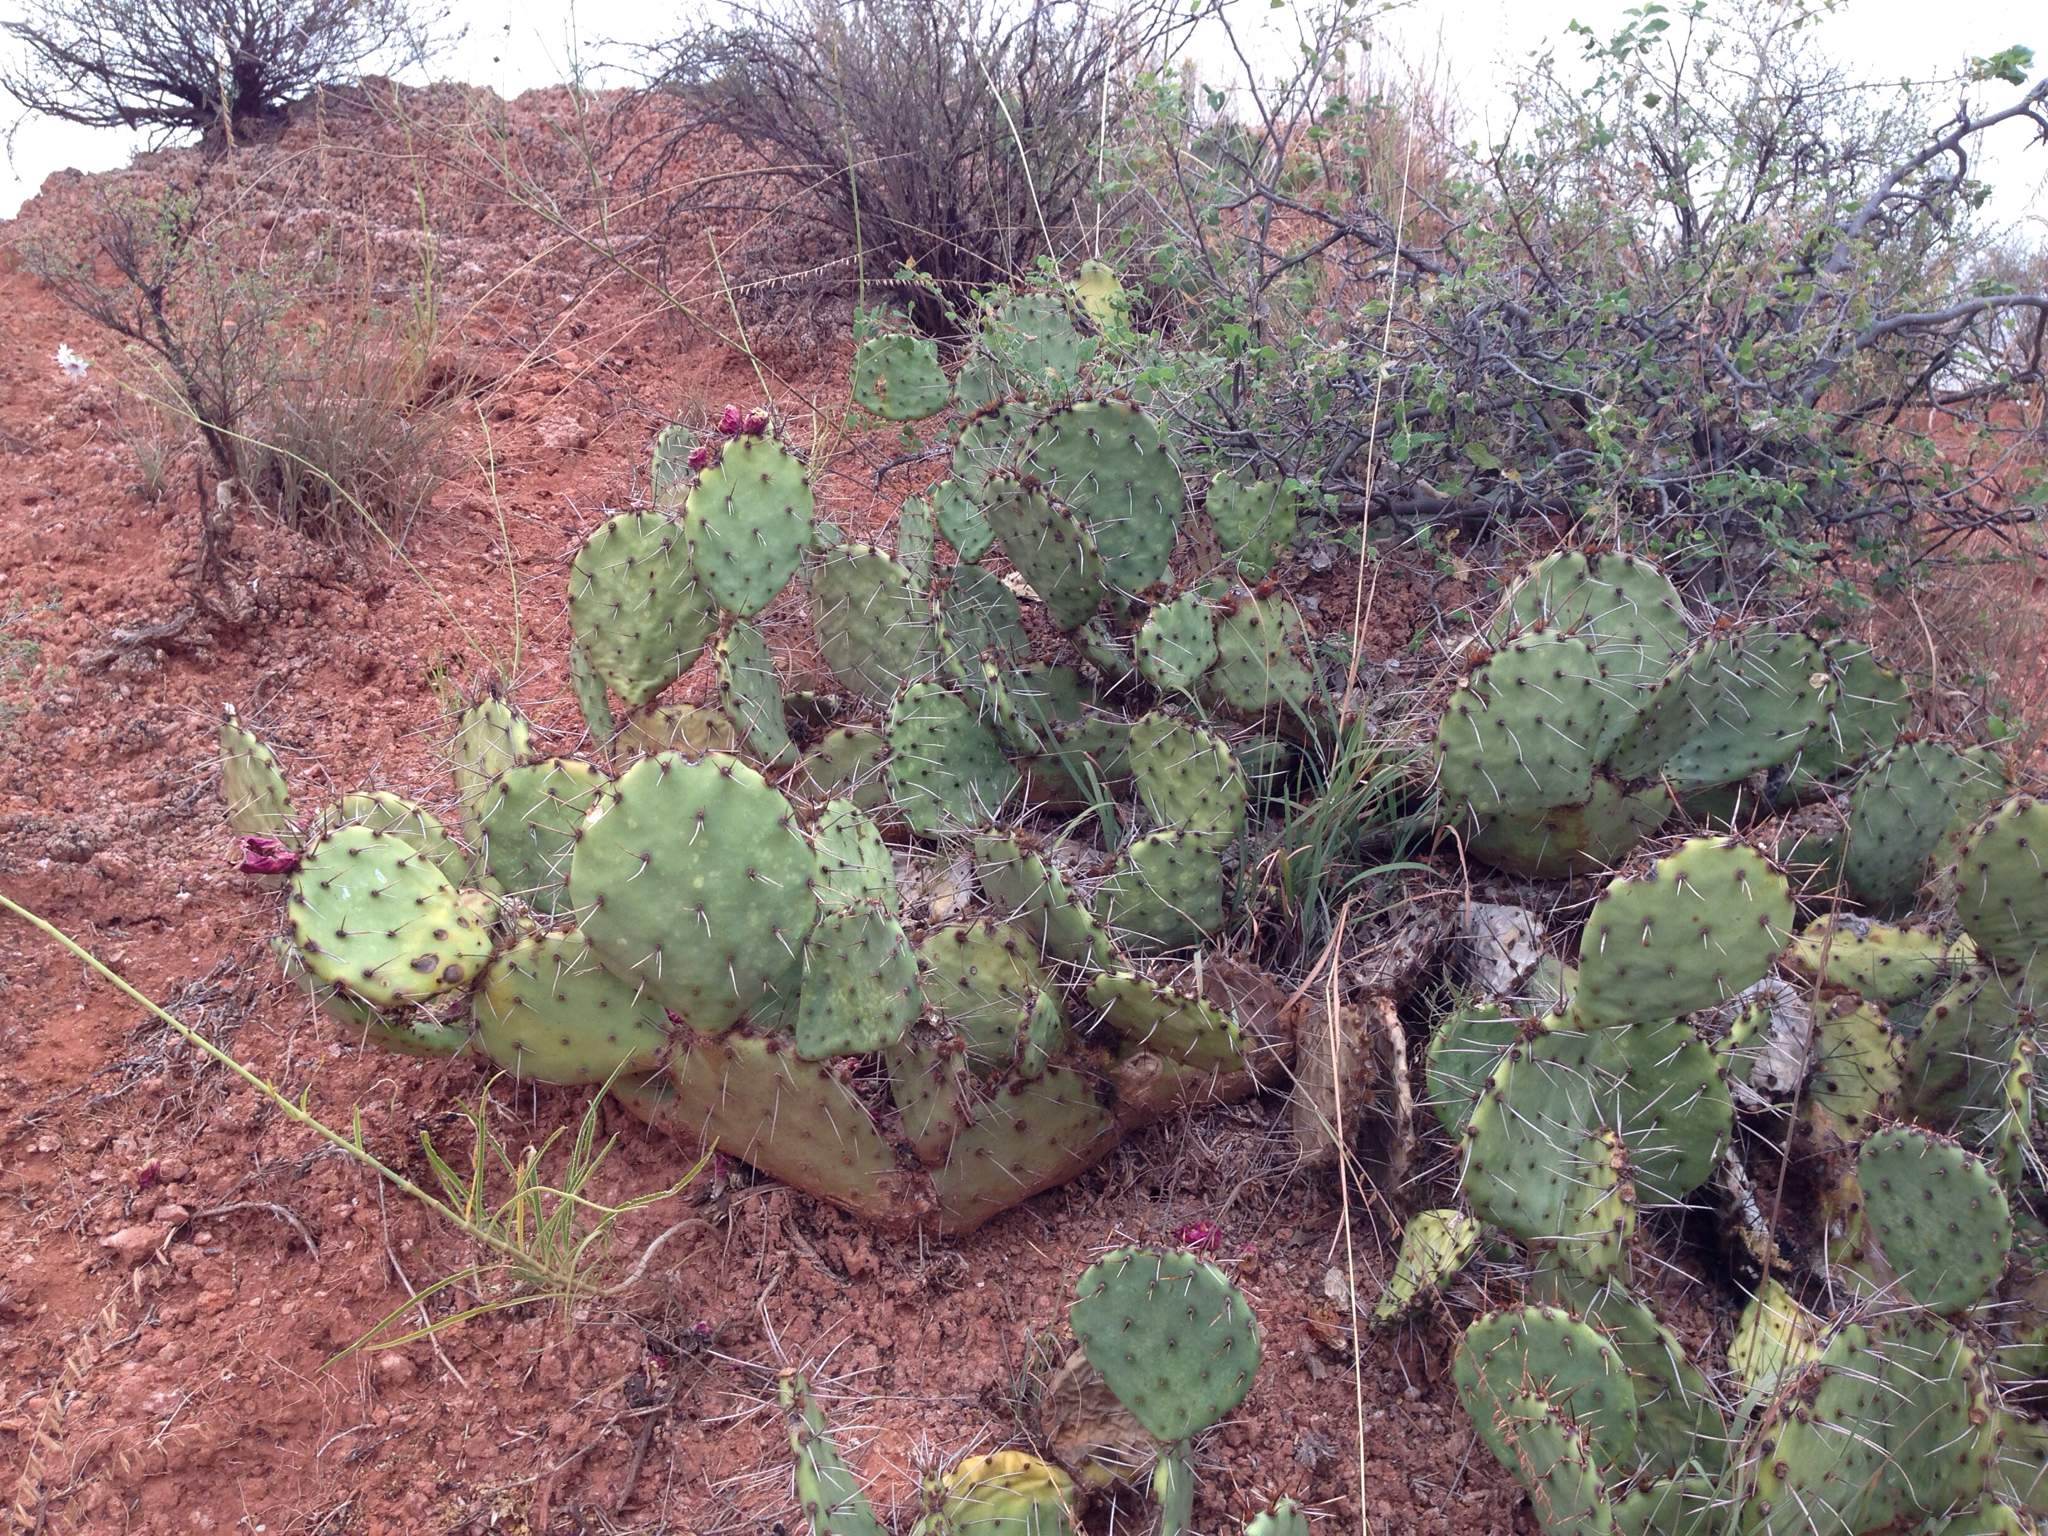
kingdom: Plantae
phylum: Tracheophyta
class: Magnoliopsida
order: Caryophyllales
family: Cactaceae
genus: Opuntia
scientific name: Opuntia phaeacantha
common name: New mexico prickly-pear
